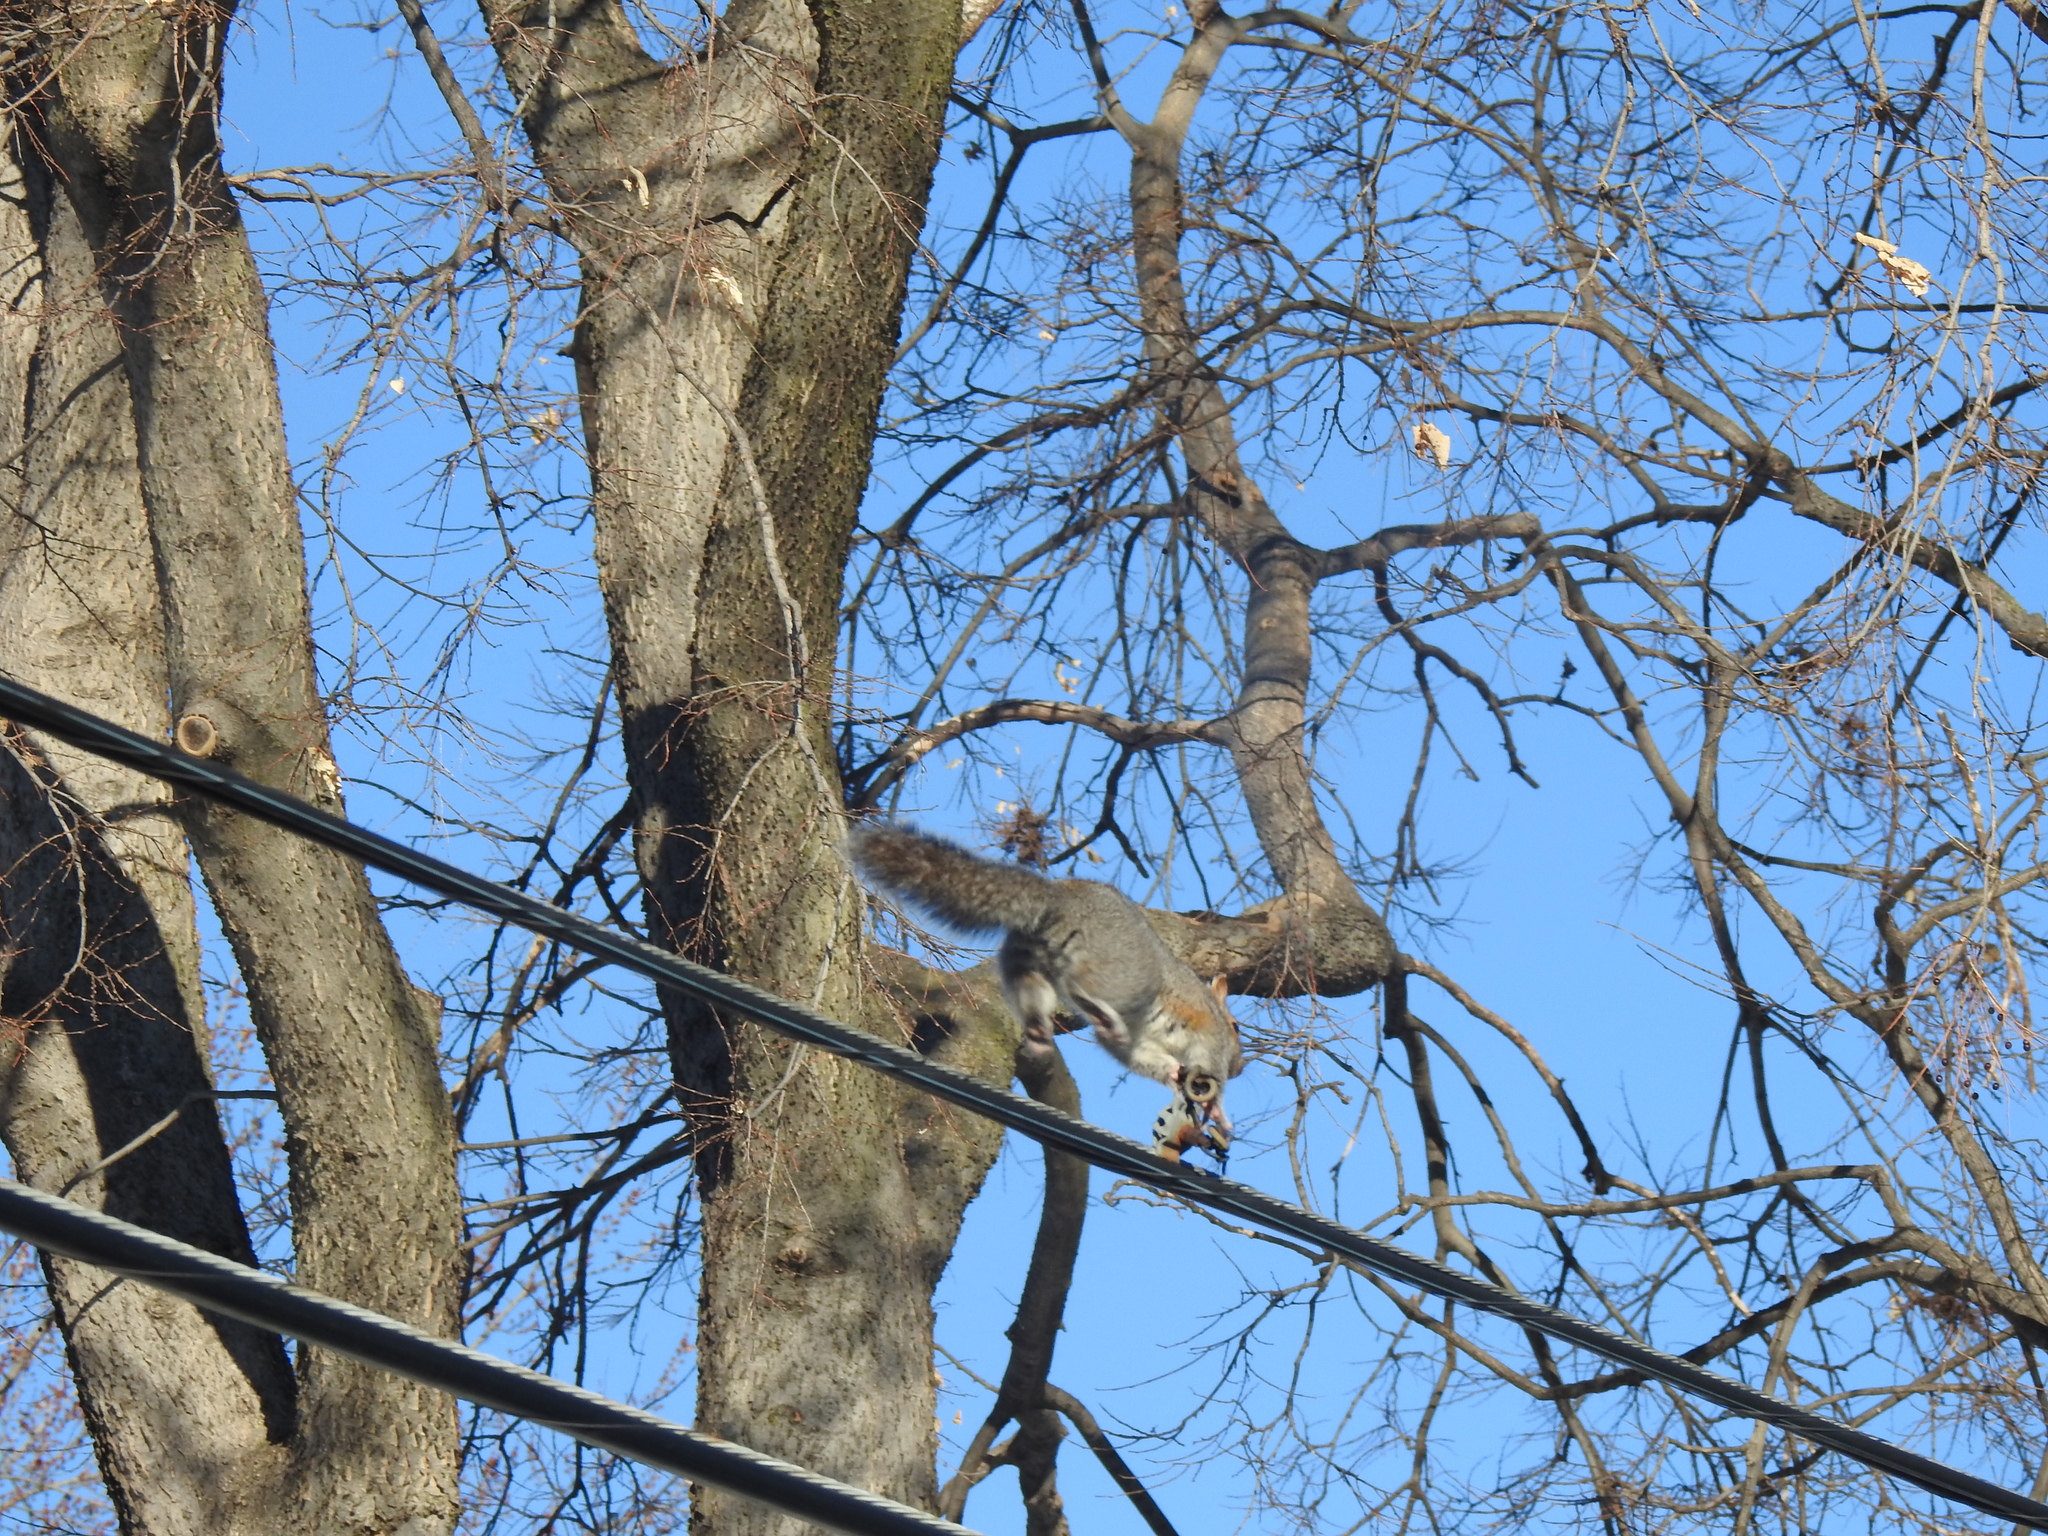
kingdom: Animalia
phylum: Chordata
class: Mammalia
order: Rodentia
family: Sciuridae
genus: Sciurus
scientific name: Sciurus carolinensis
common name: Eastern gray squirrel
